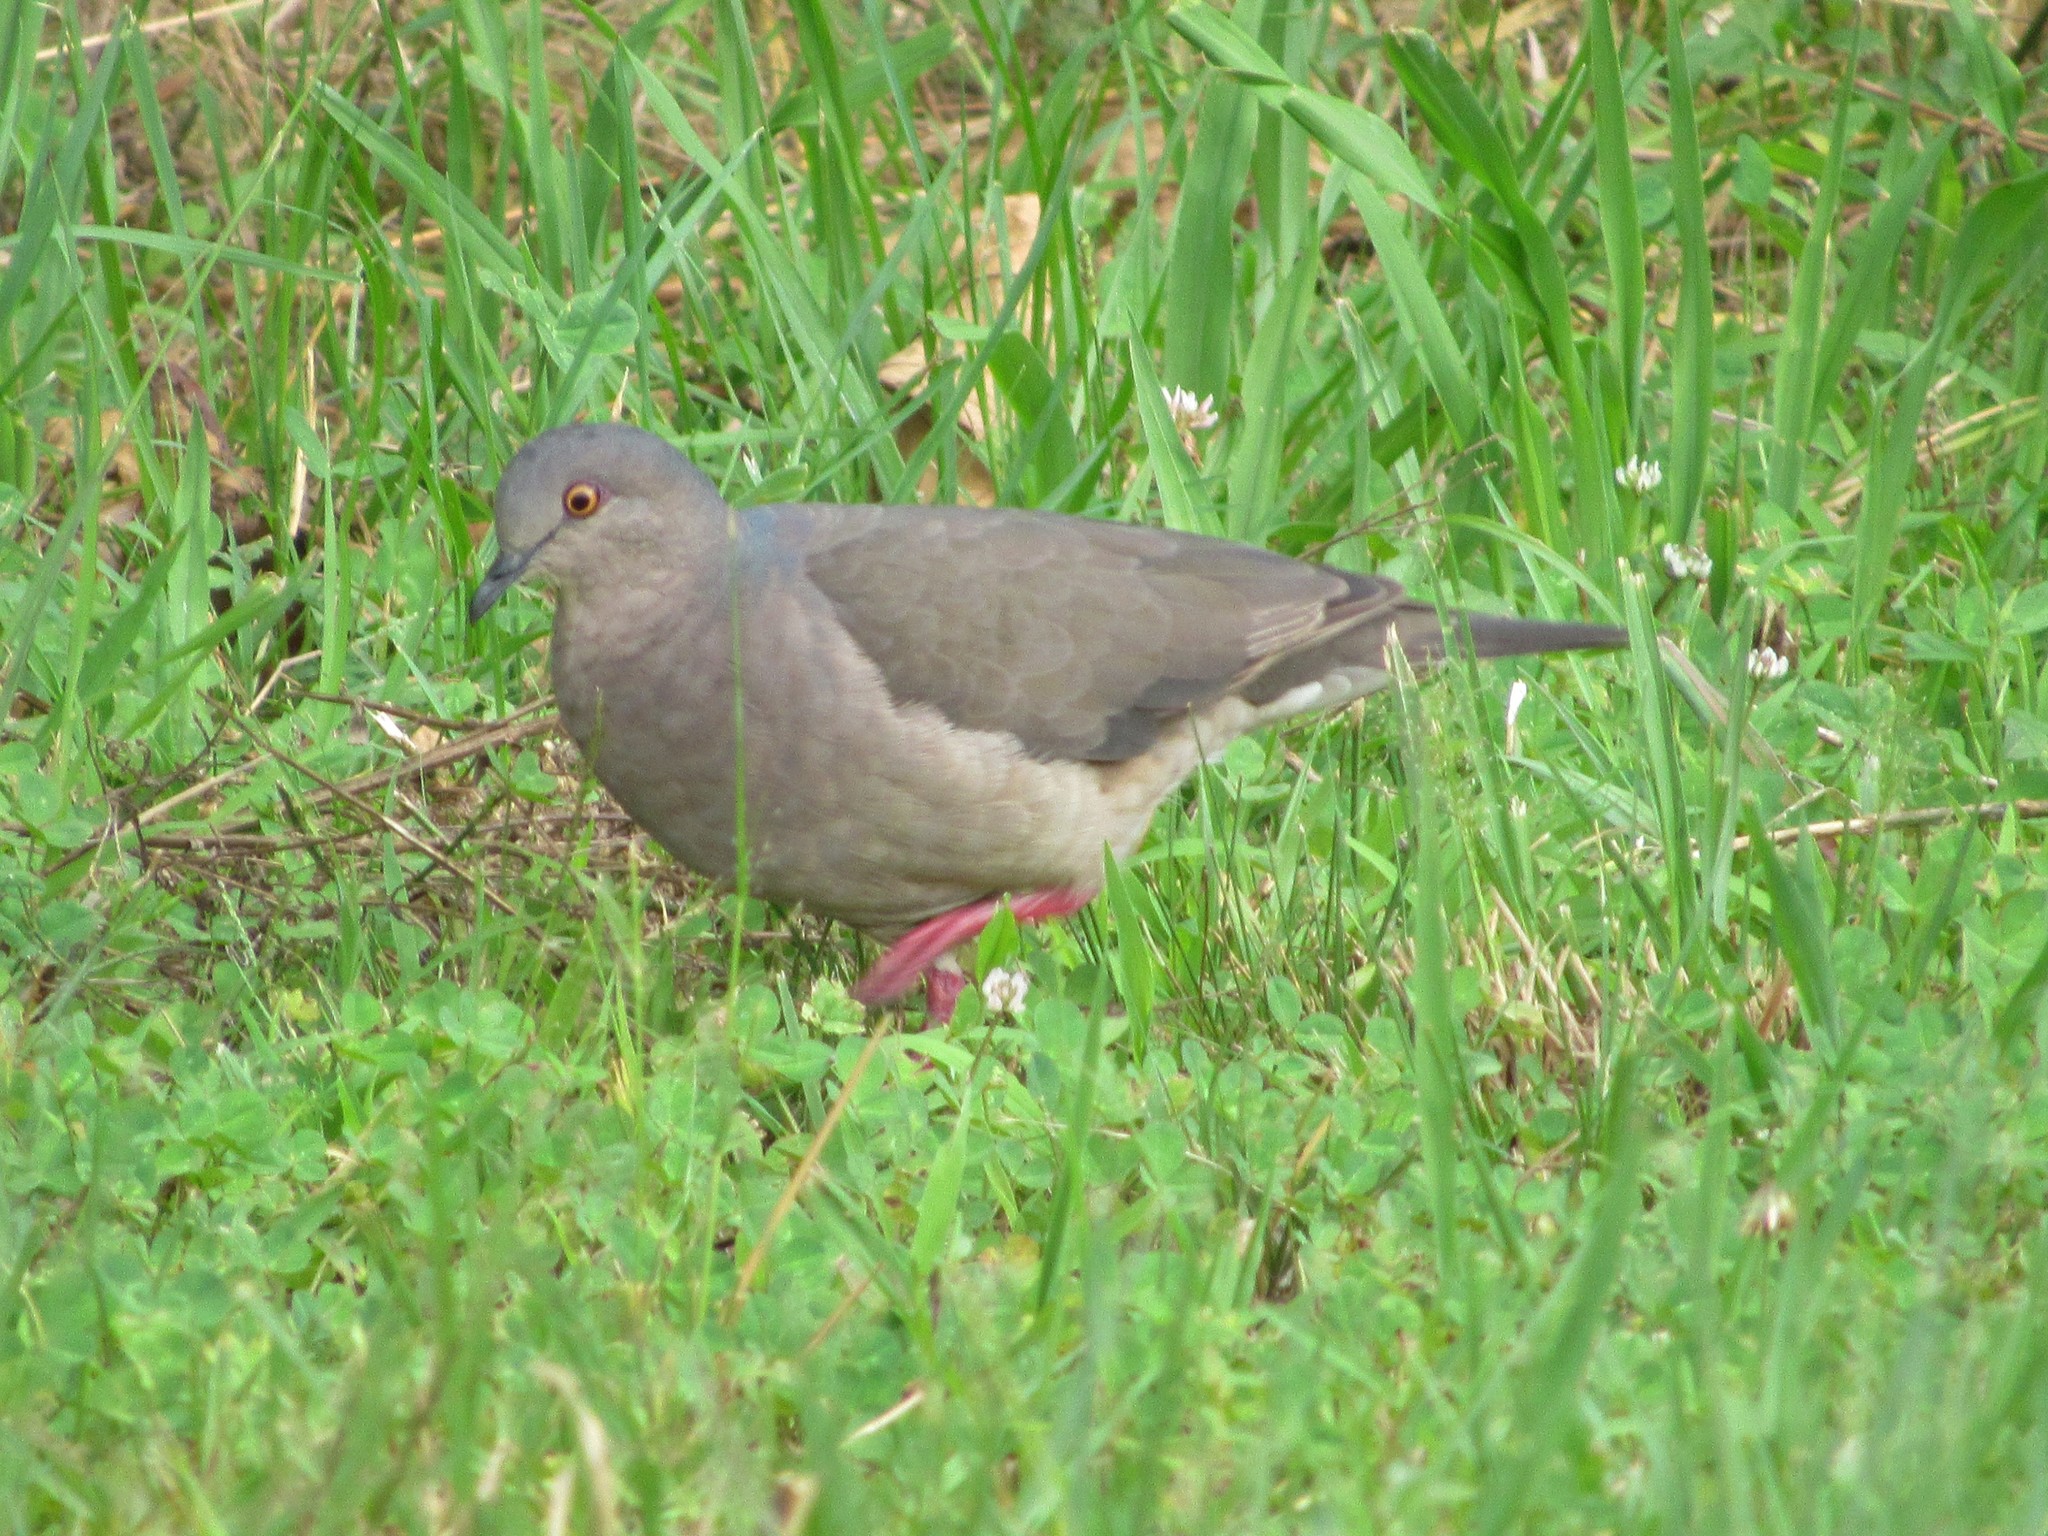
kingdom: Animalia
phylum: Chordata
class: Aves
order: Columbiformes
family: Columbidae
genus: Leptotila
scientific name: Leptotila verreauxi
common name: White-tipped dove
